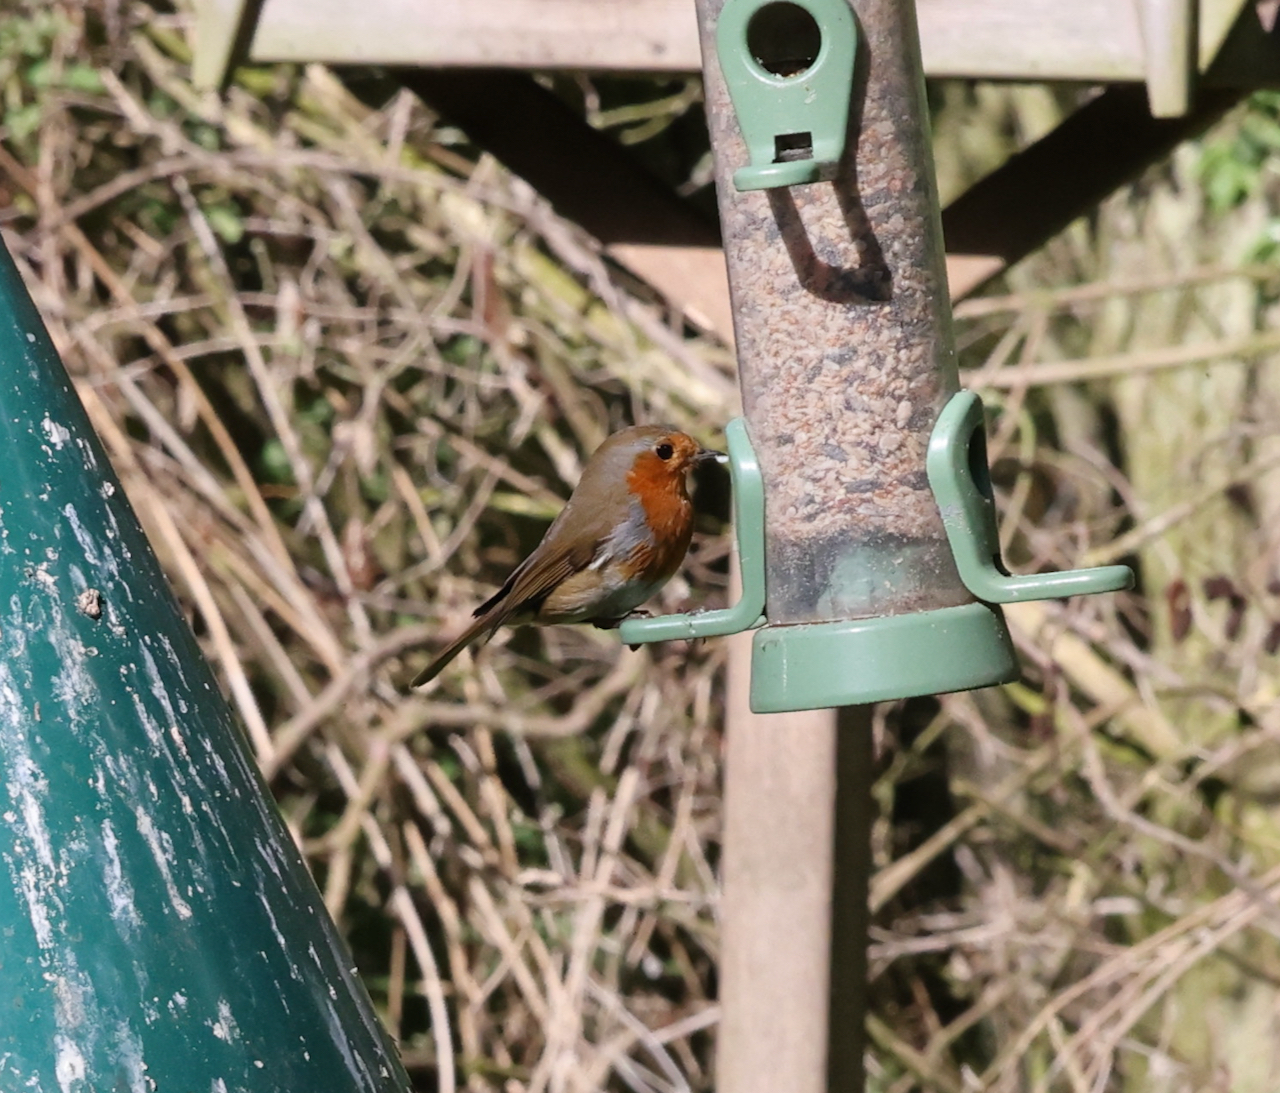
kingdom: Animalia
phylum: Chordata
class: Aves
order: Passeriformes
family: Muscicapidae
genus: Erithacus
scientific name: Erithacus rubecula
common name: European robin
